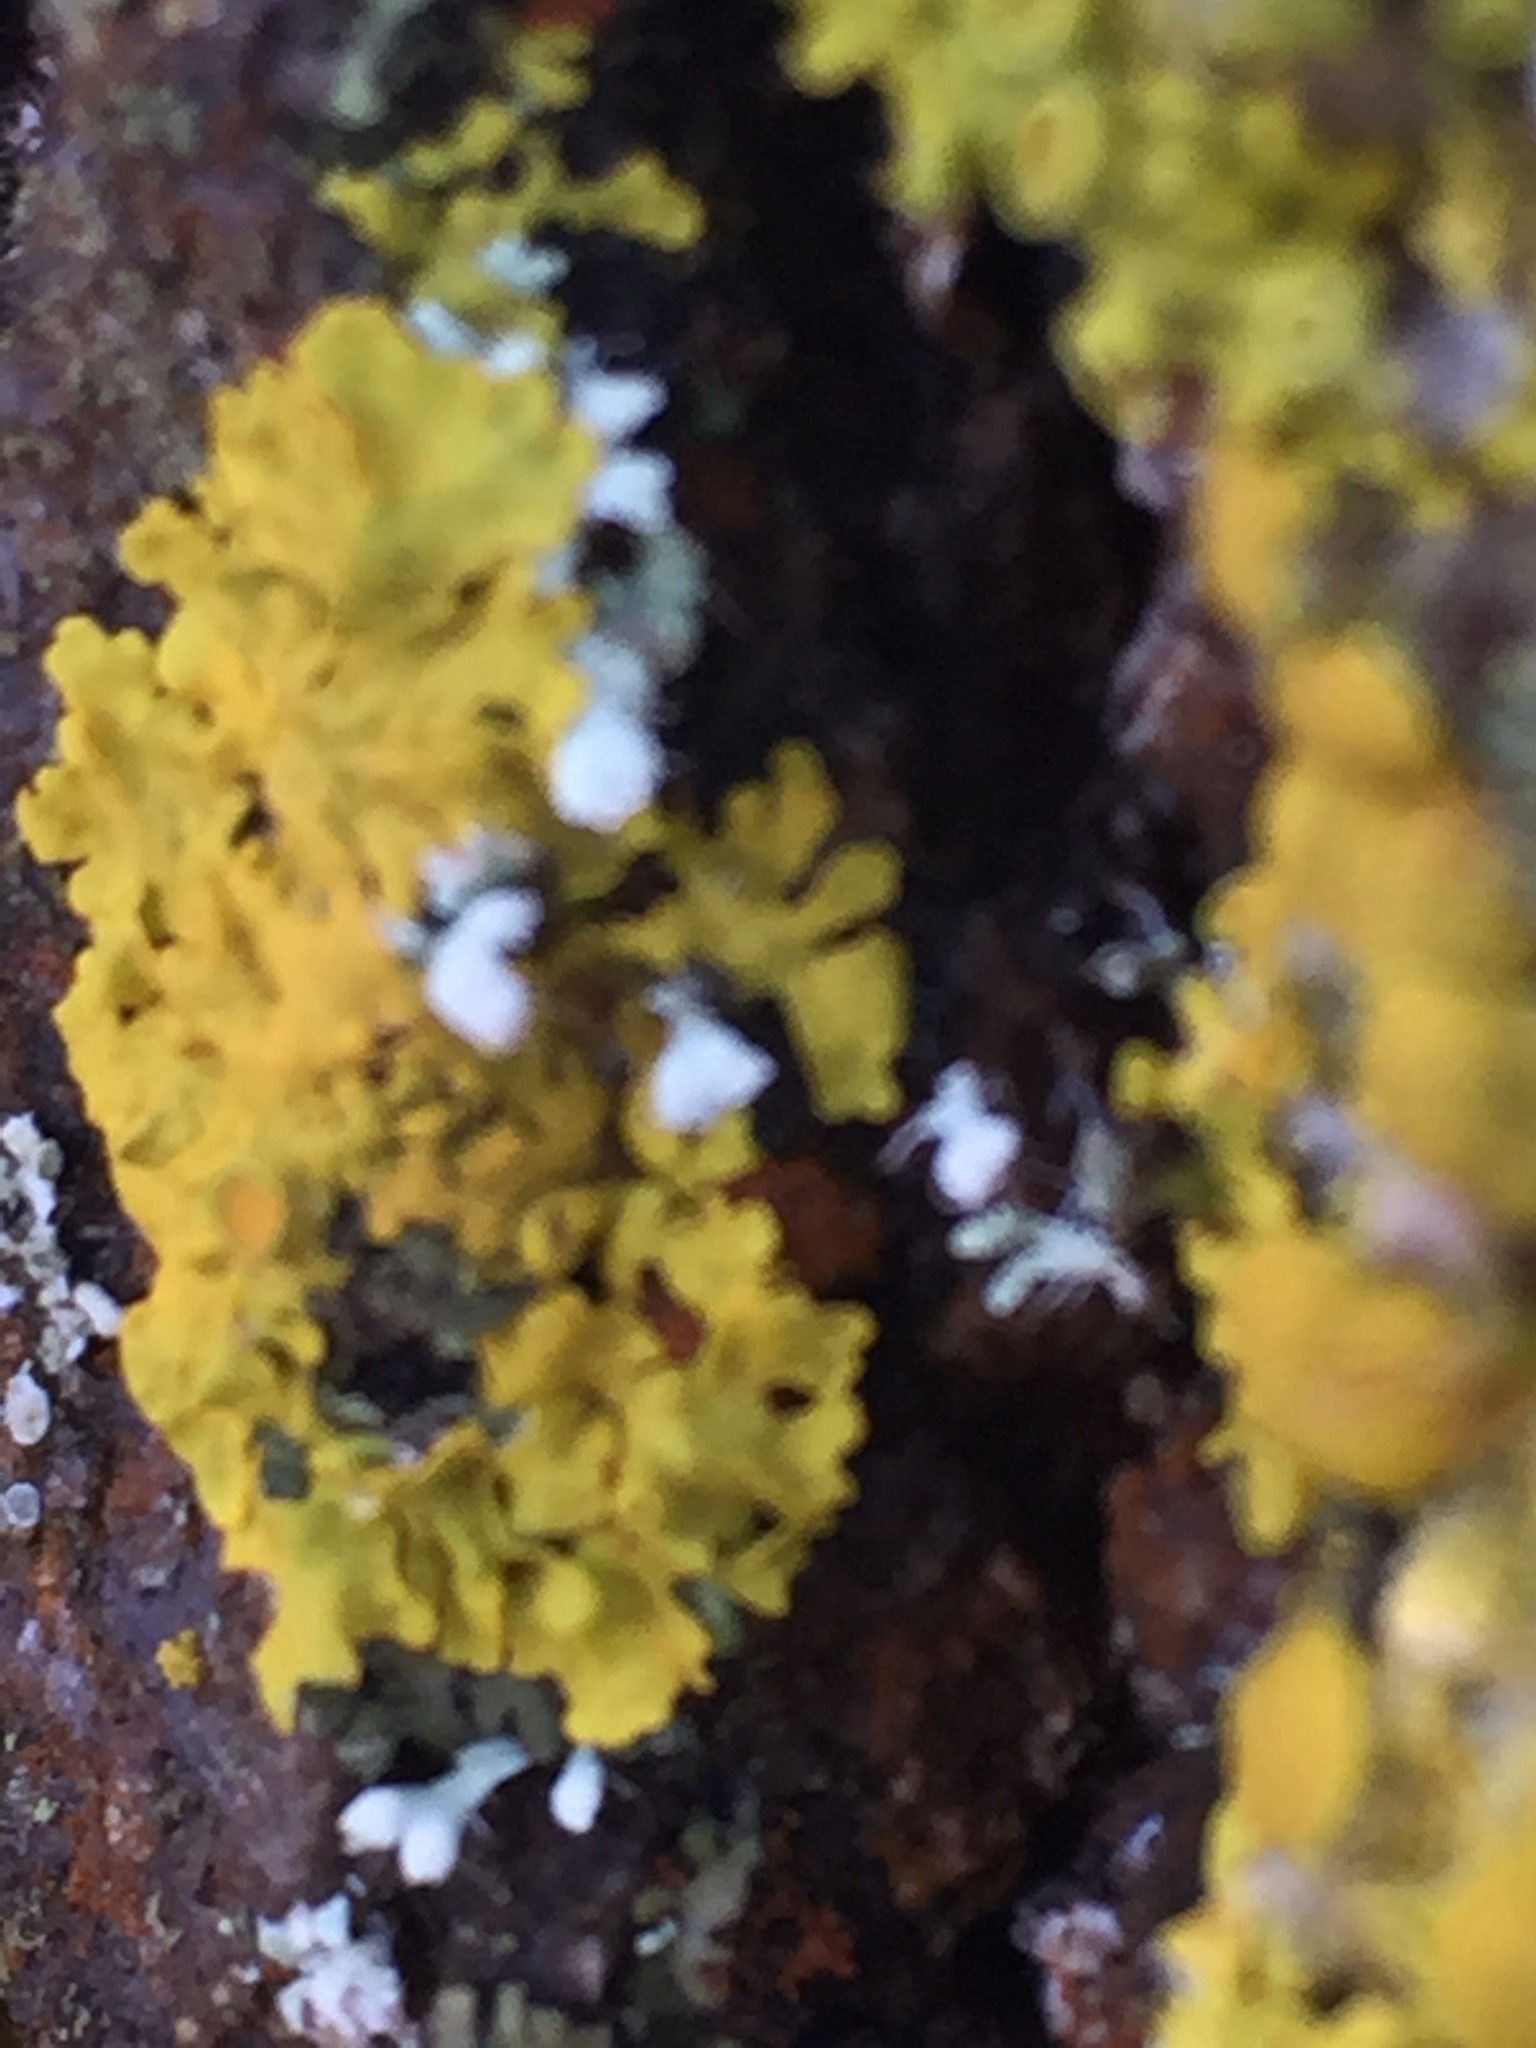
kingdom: Fungi
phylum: Ascomycota
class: Lecanoromycetes
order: Teloschistales
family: Teloschistaceae
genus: Xanthoria
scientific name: Xanthoria parietina
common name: Common orange lichen
